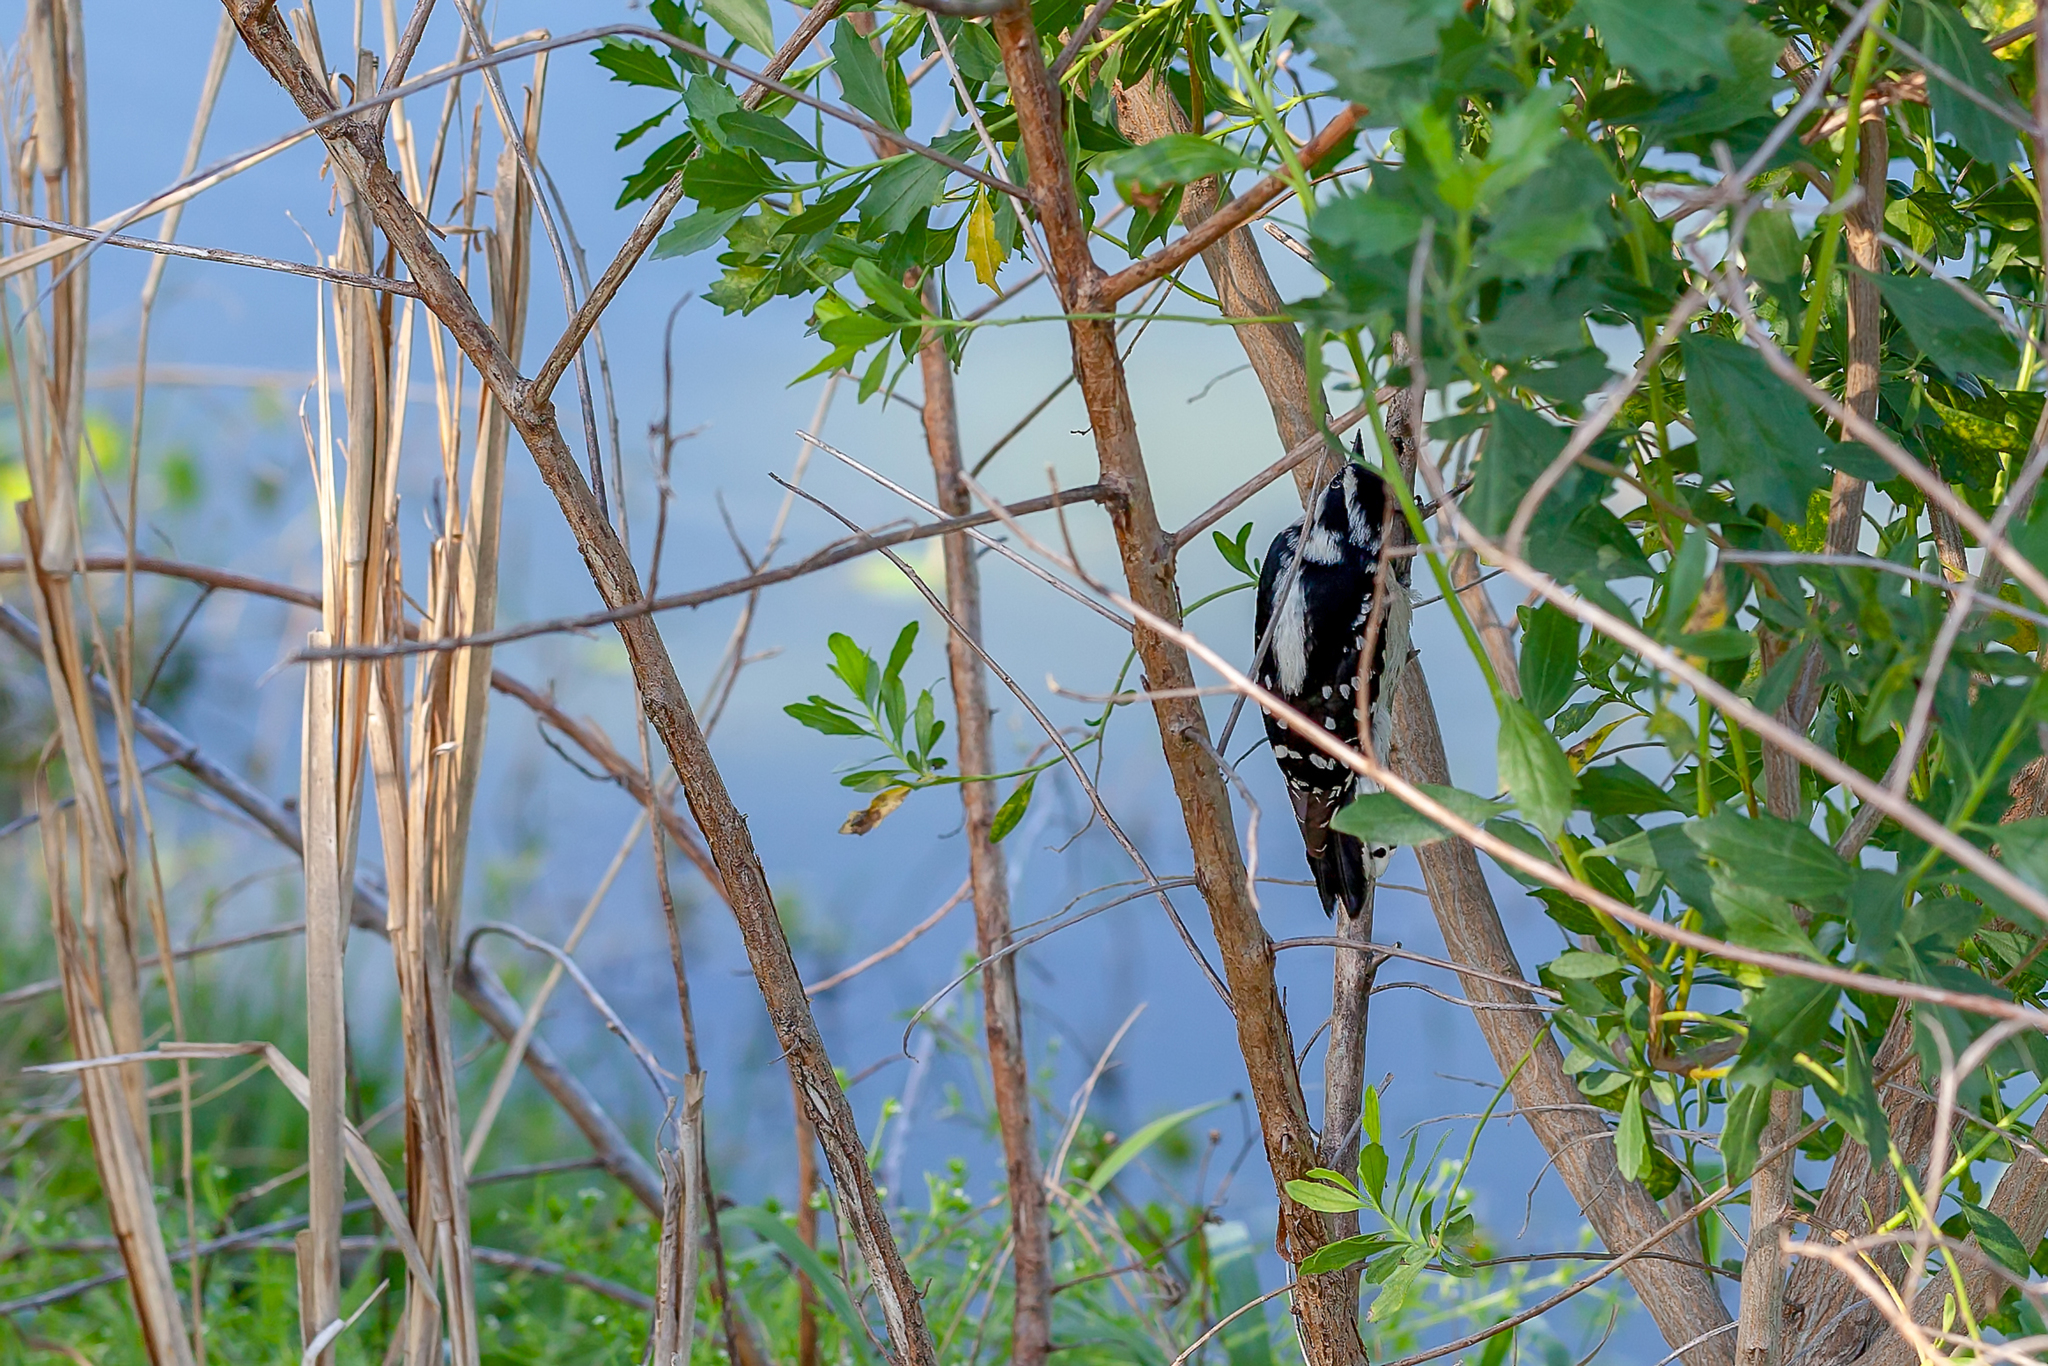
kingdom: Animalia
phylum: Chordata
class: Aves
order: Piciformes
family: Picidae
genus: Dryobates
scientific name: Dryobates pubescens
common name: Downy woodpecker
